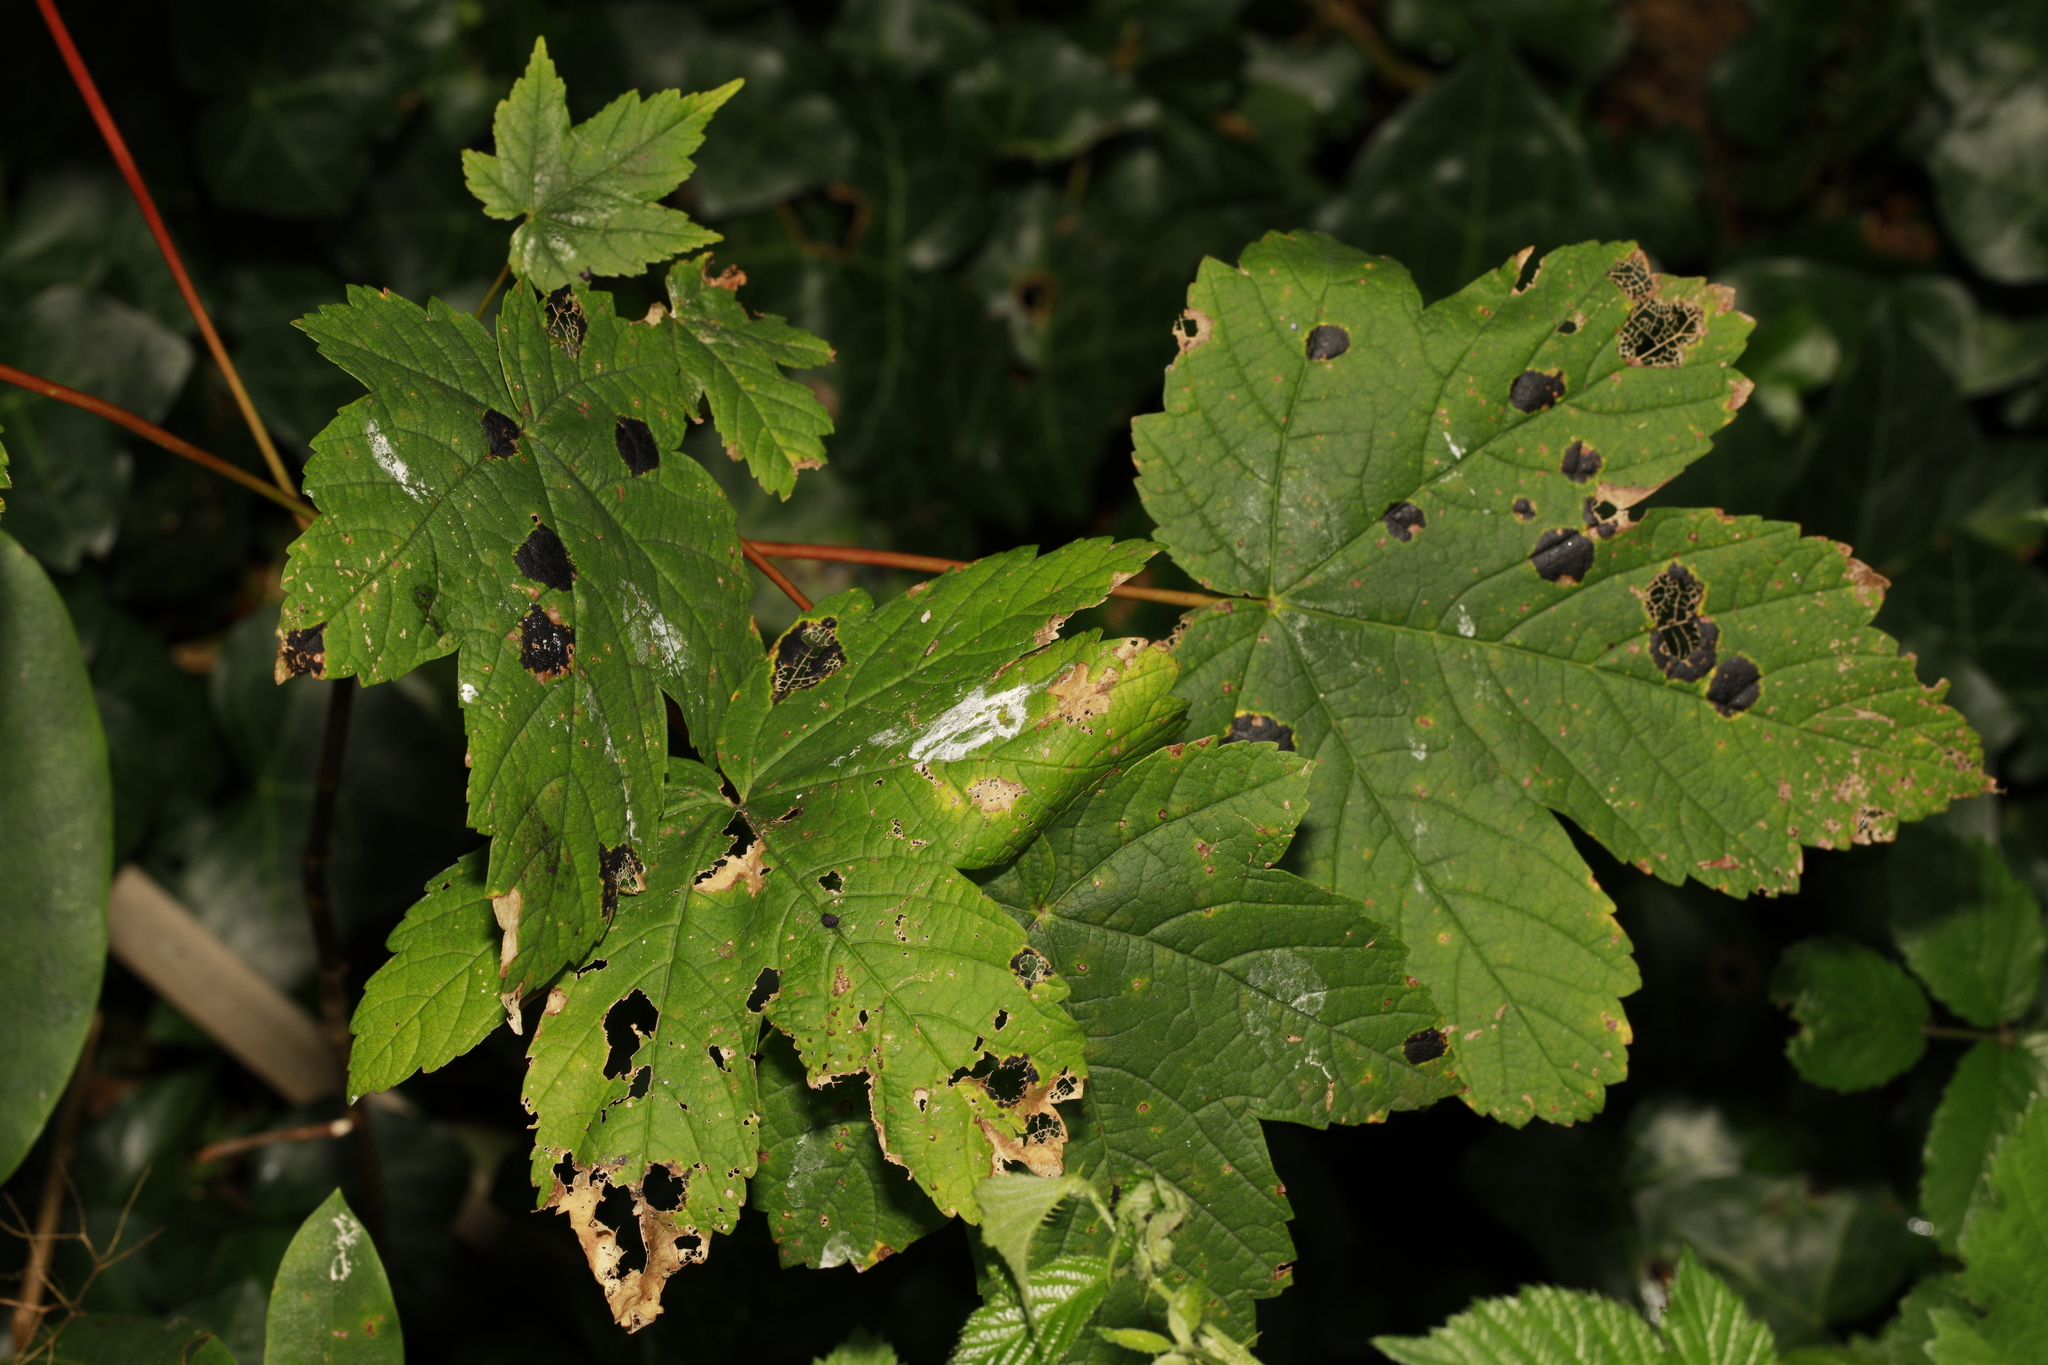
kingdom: Plantae
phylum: Tracheophyta
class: Magnoliopsida
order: Sapindales
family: Sapindaceae
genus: Acer
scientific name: Acer pseudoplatanus
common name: Sycamore
